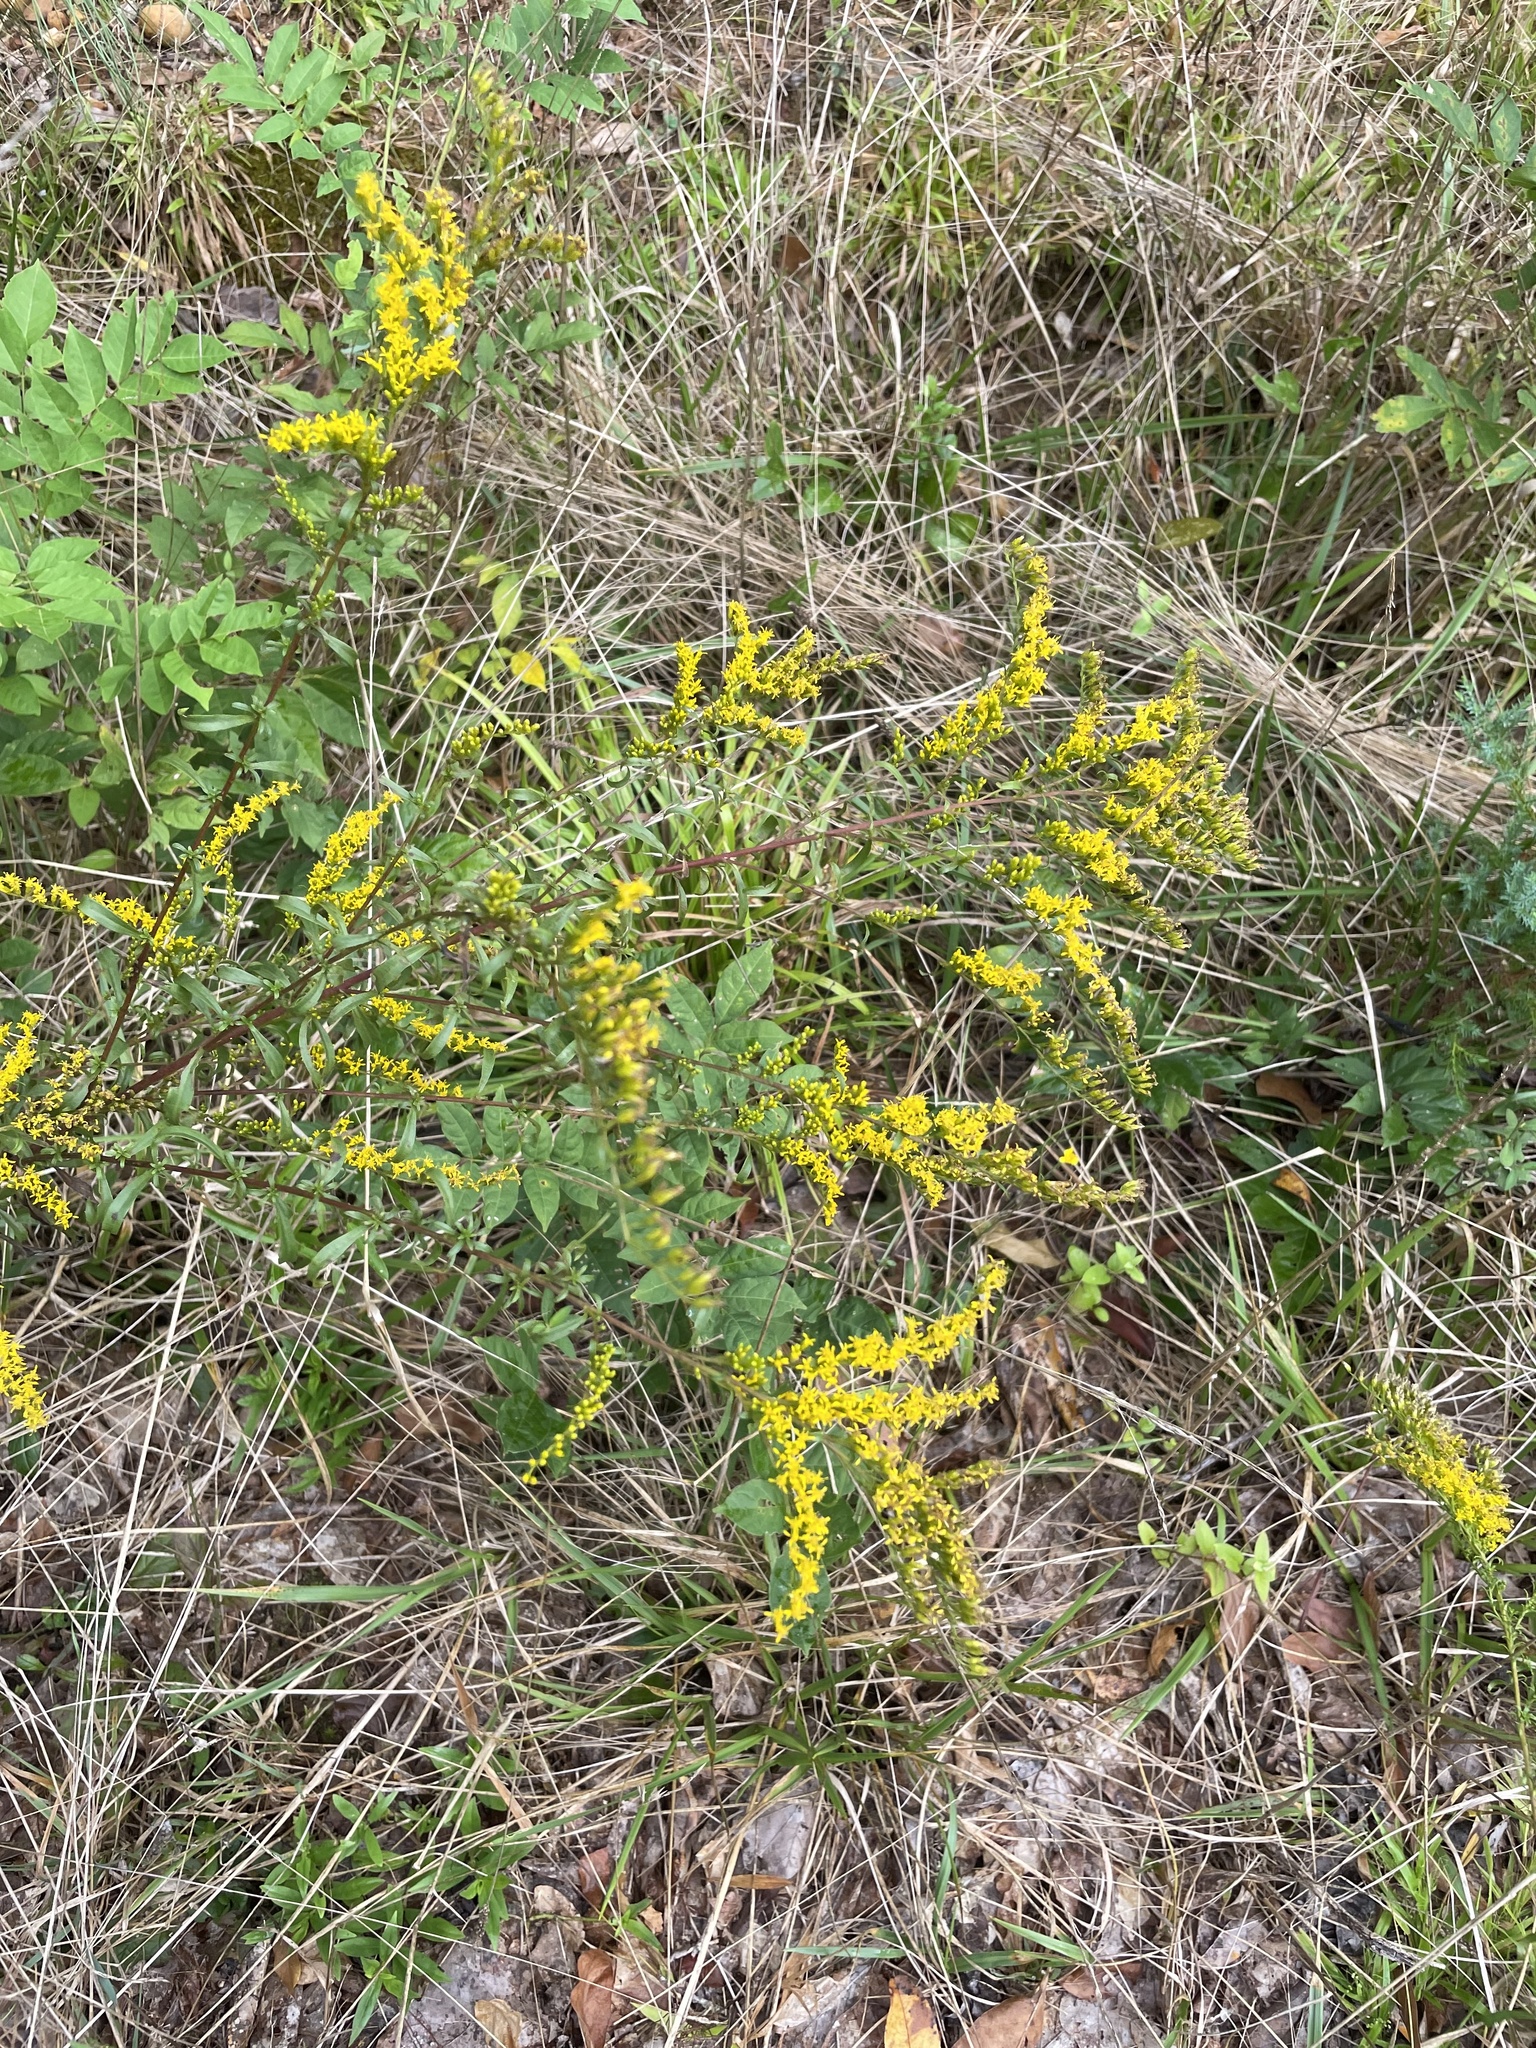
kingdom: Plantae
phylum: Tracheophyta
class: Magnoliopsida
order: Asterales
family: Asteraceae
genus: Solidago
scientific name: Solidago pinetorum
